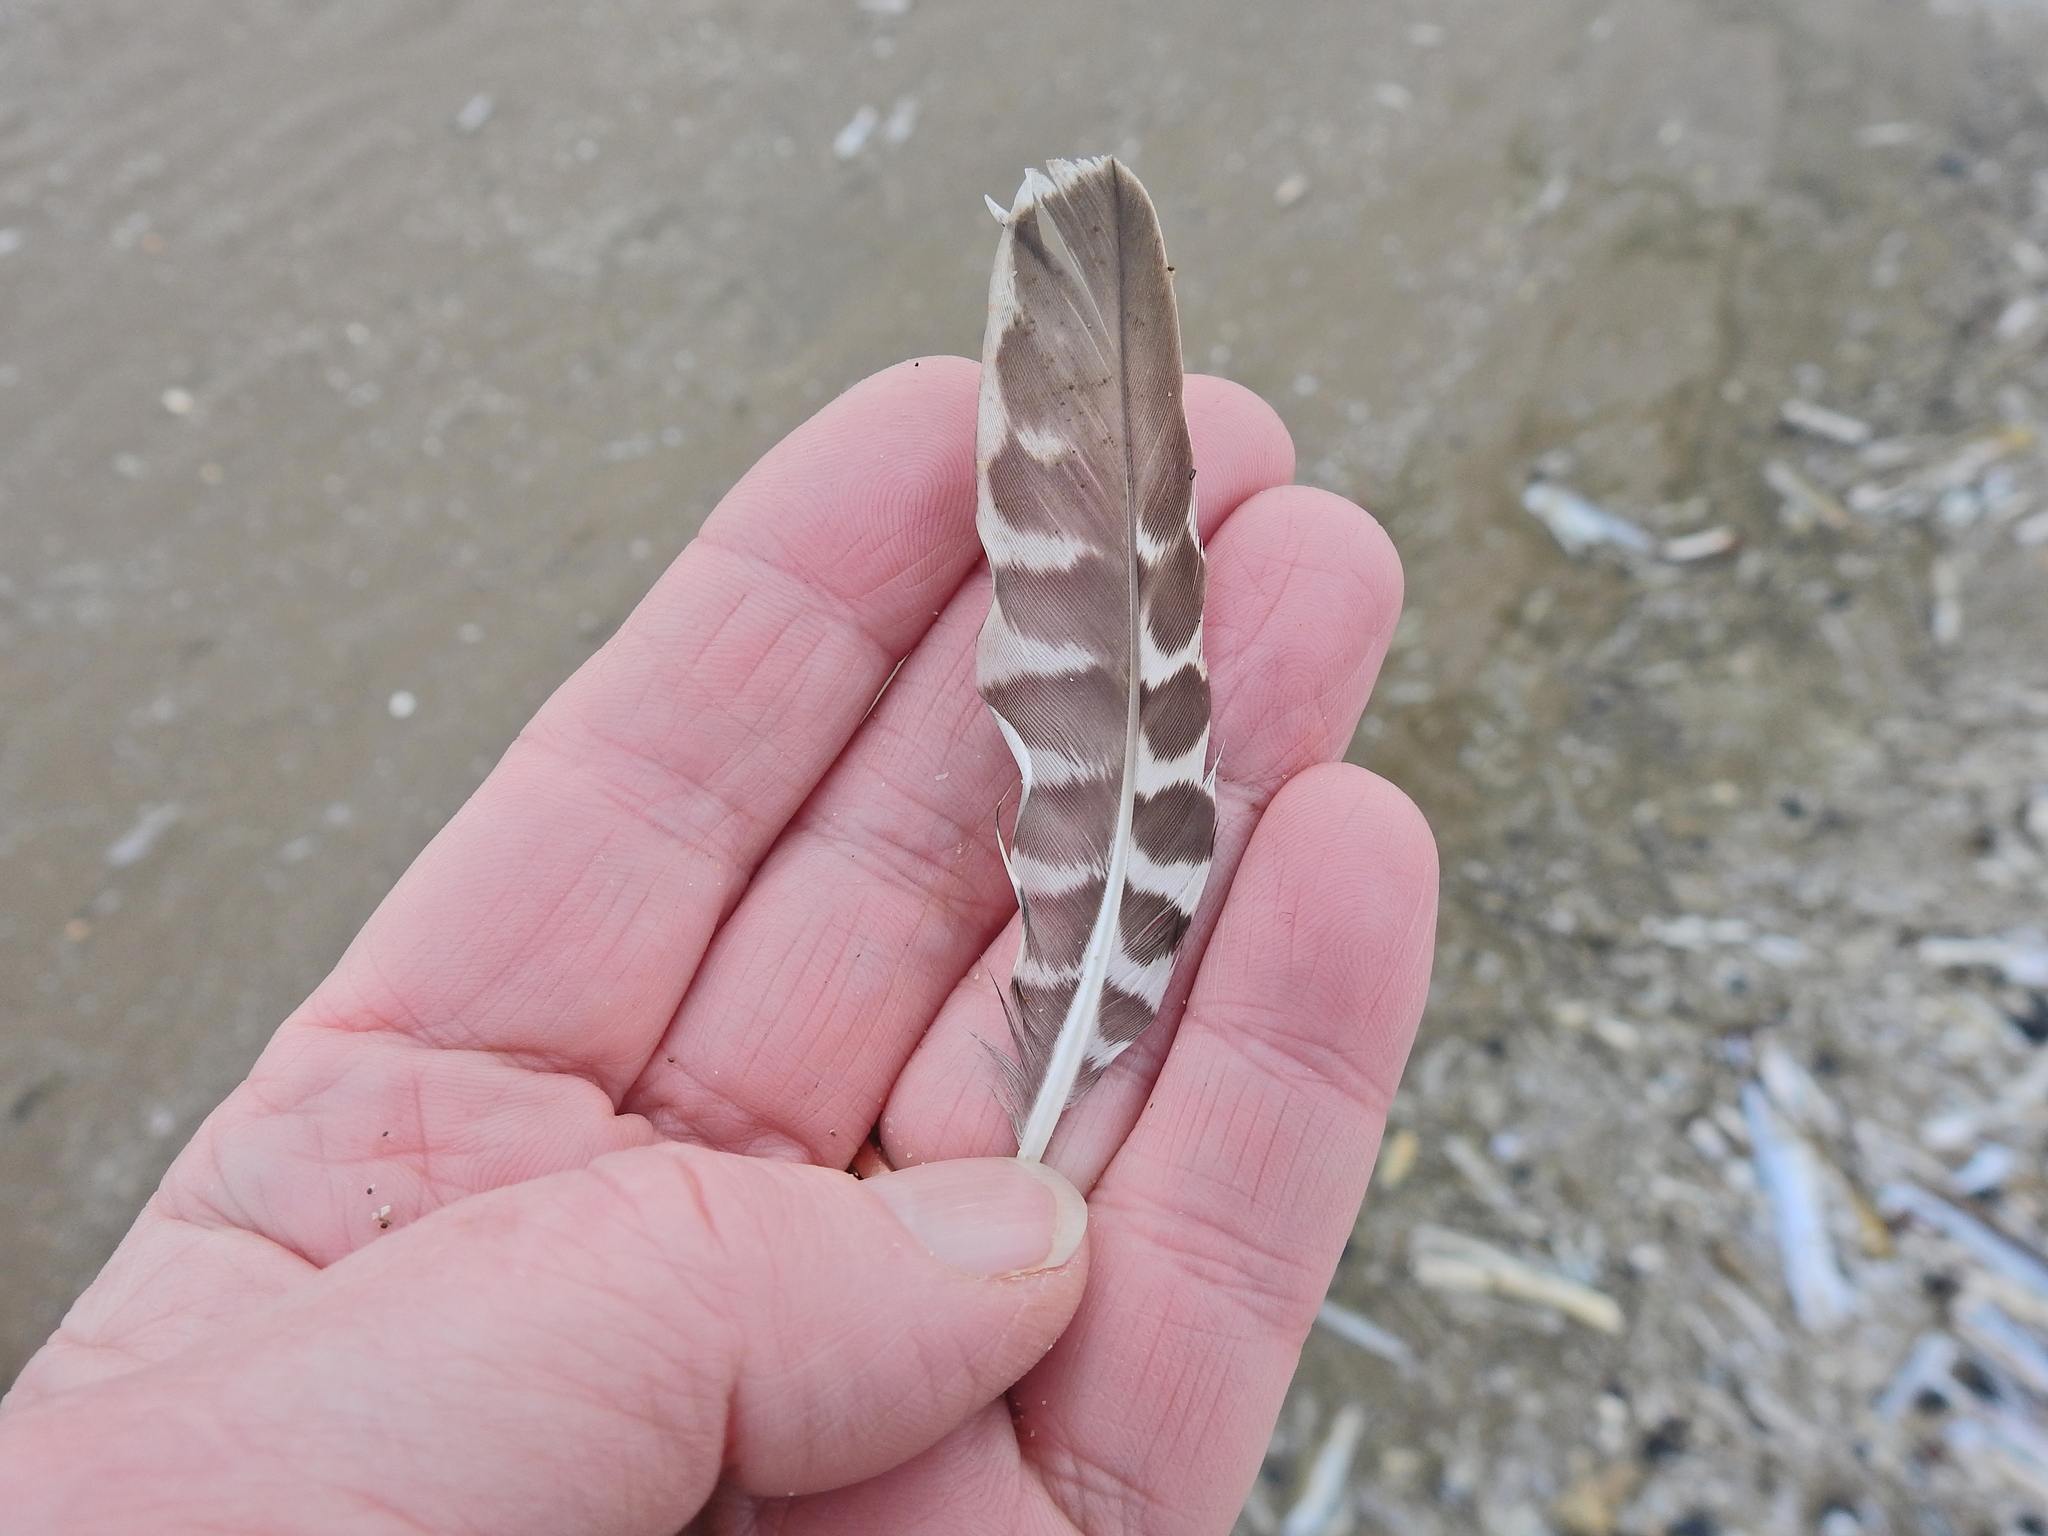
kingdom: Animalia
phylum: Chordata
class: Aves
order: Charadriiformes
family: Scolopacidae
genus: Numenius
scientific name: Numenius arquata
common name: Eurasian curlew
